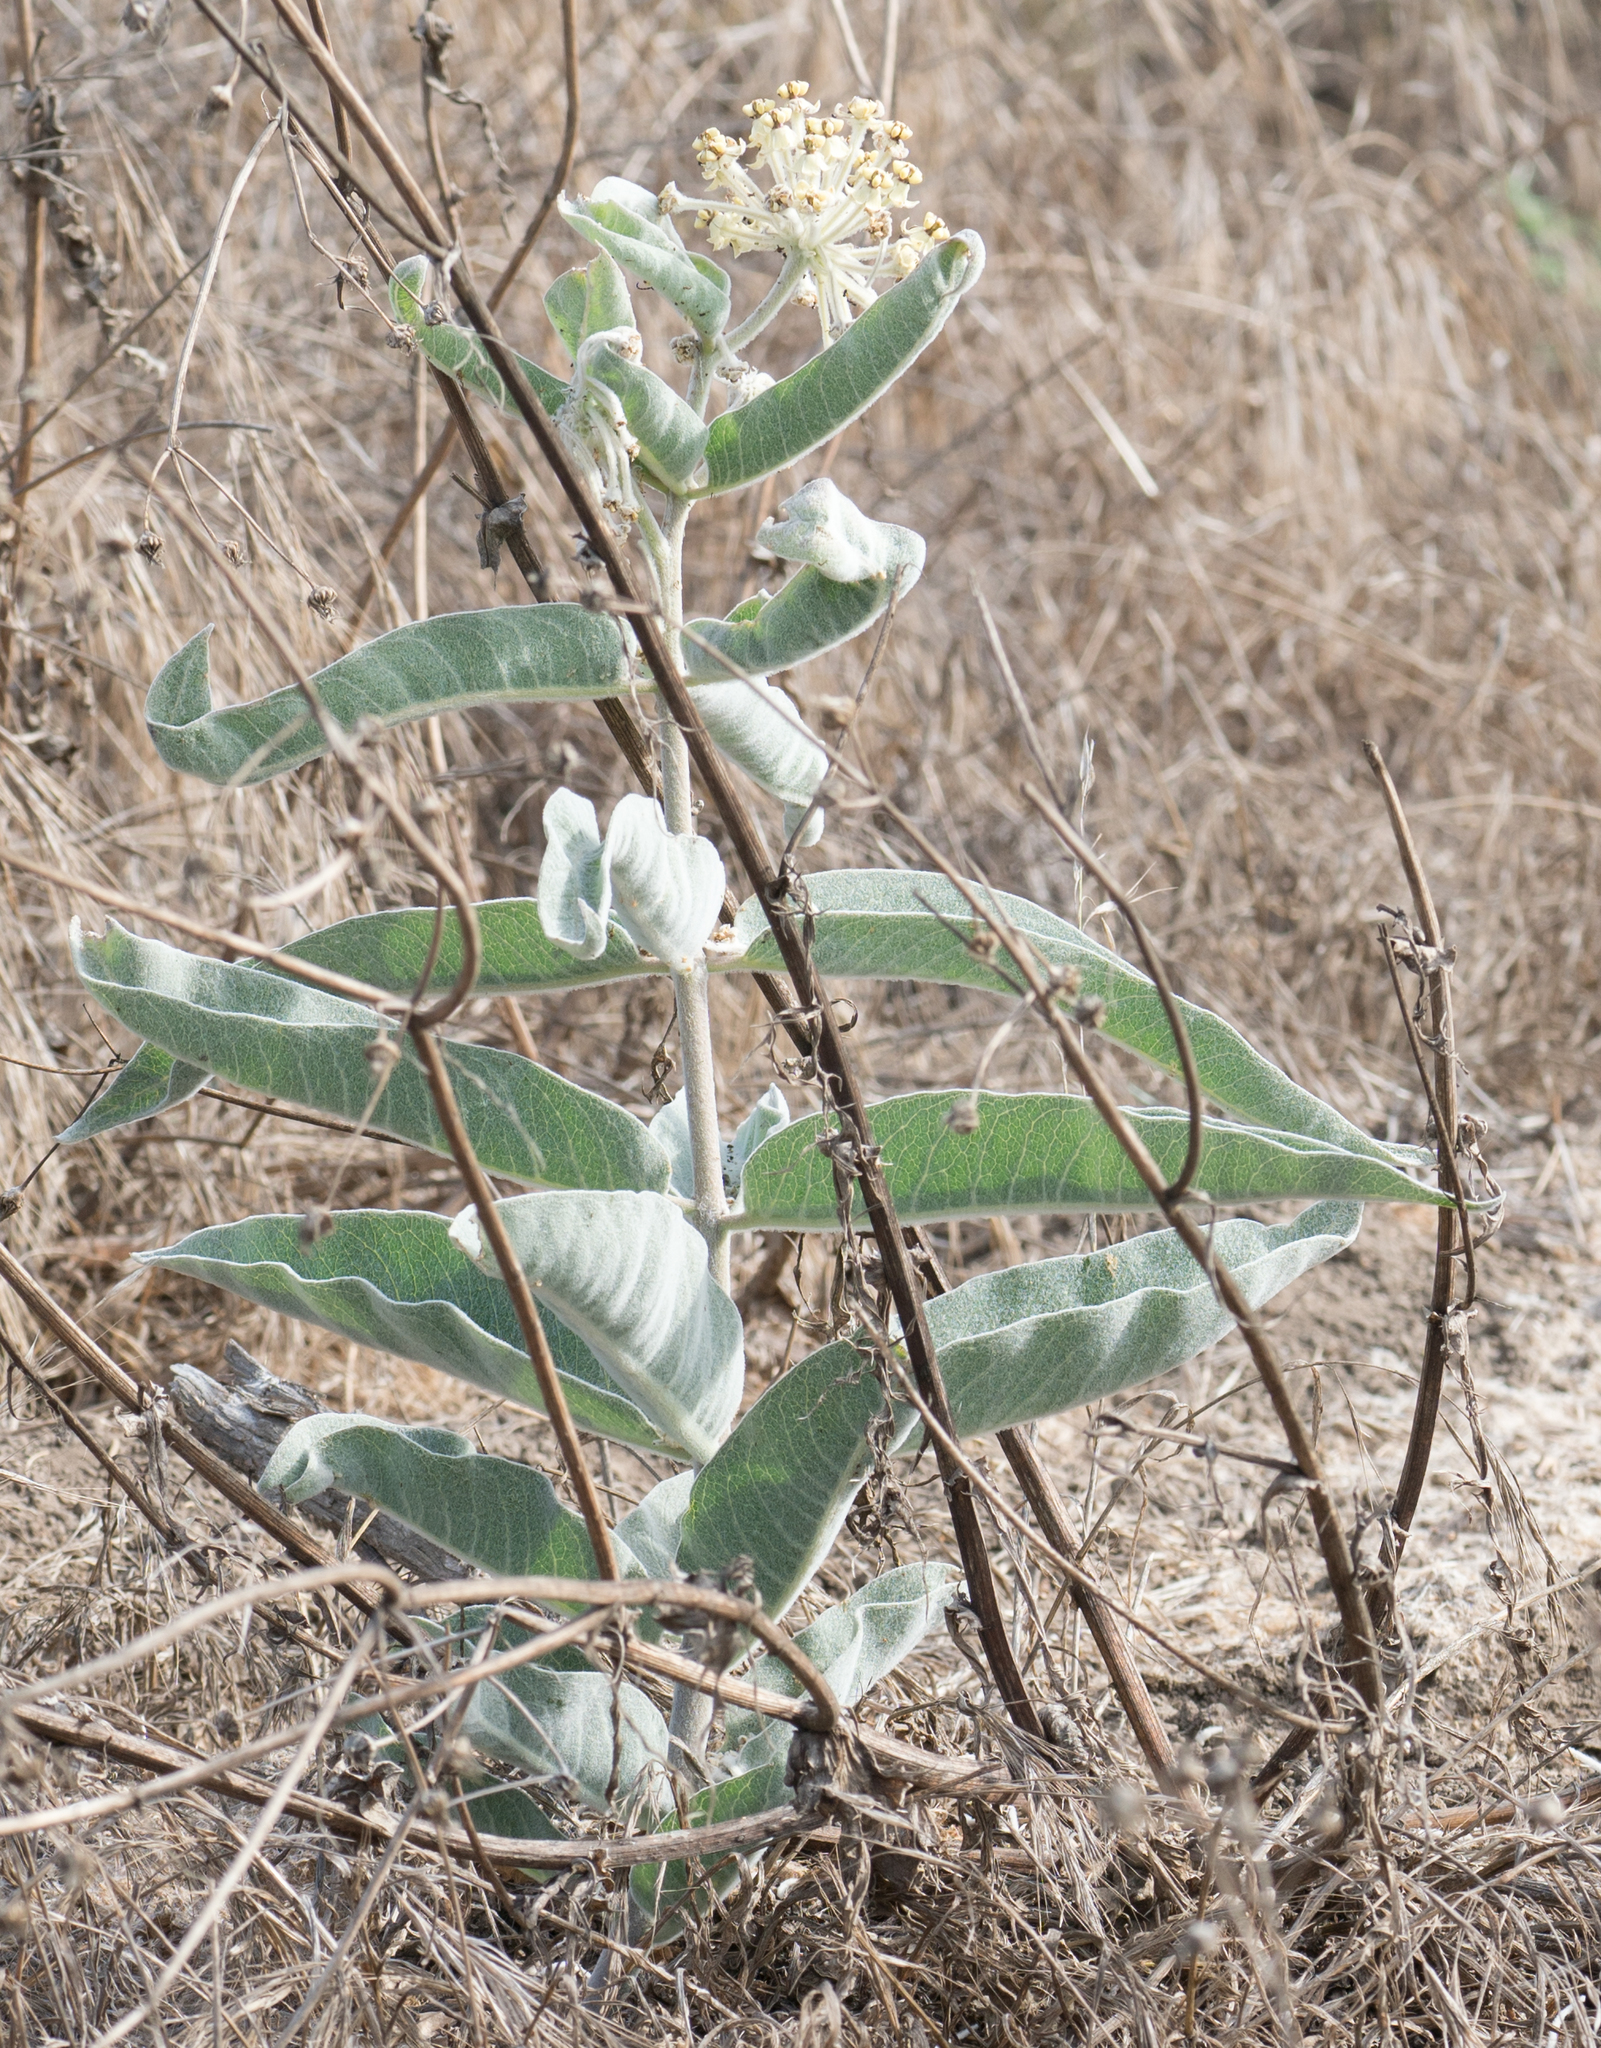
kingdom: Plantae
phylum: Tracheophyta
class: Magnoliopsida
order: Gentianales
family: Apocynaceae
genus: Asclepias
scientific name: Asclepias eriocarpa
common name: Indian milkweed
